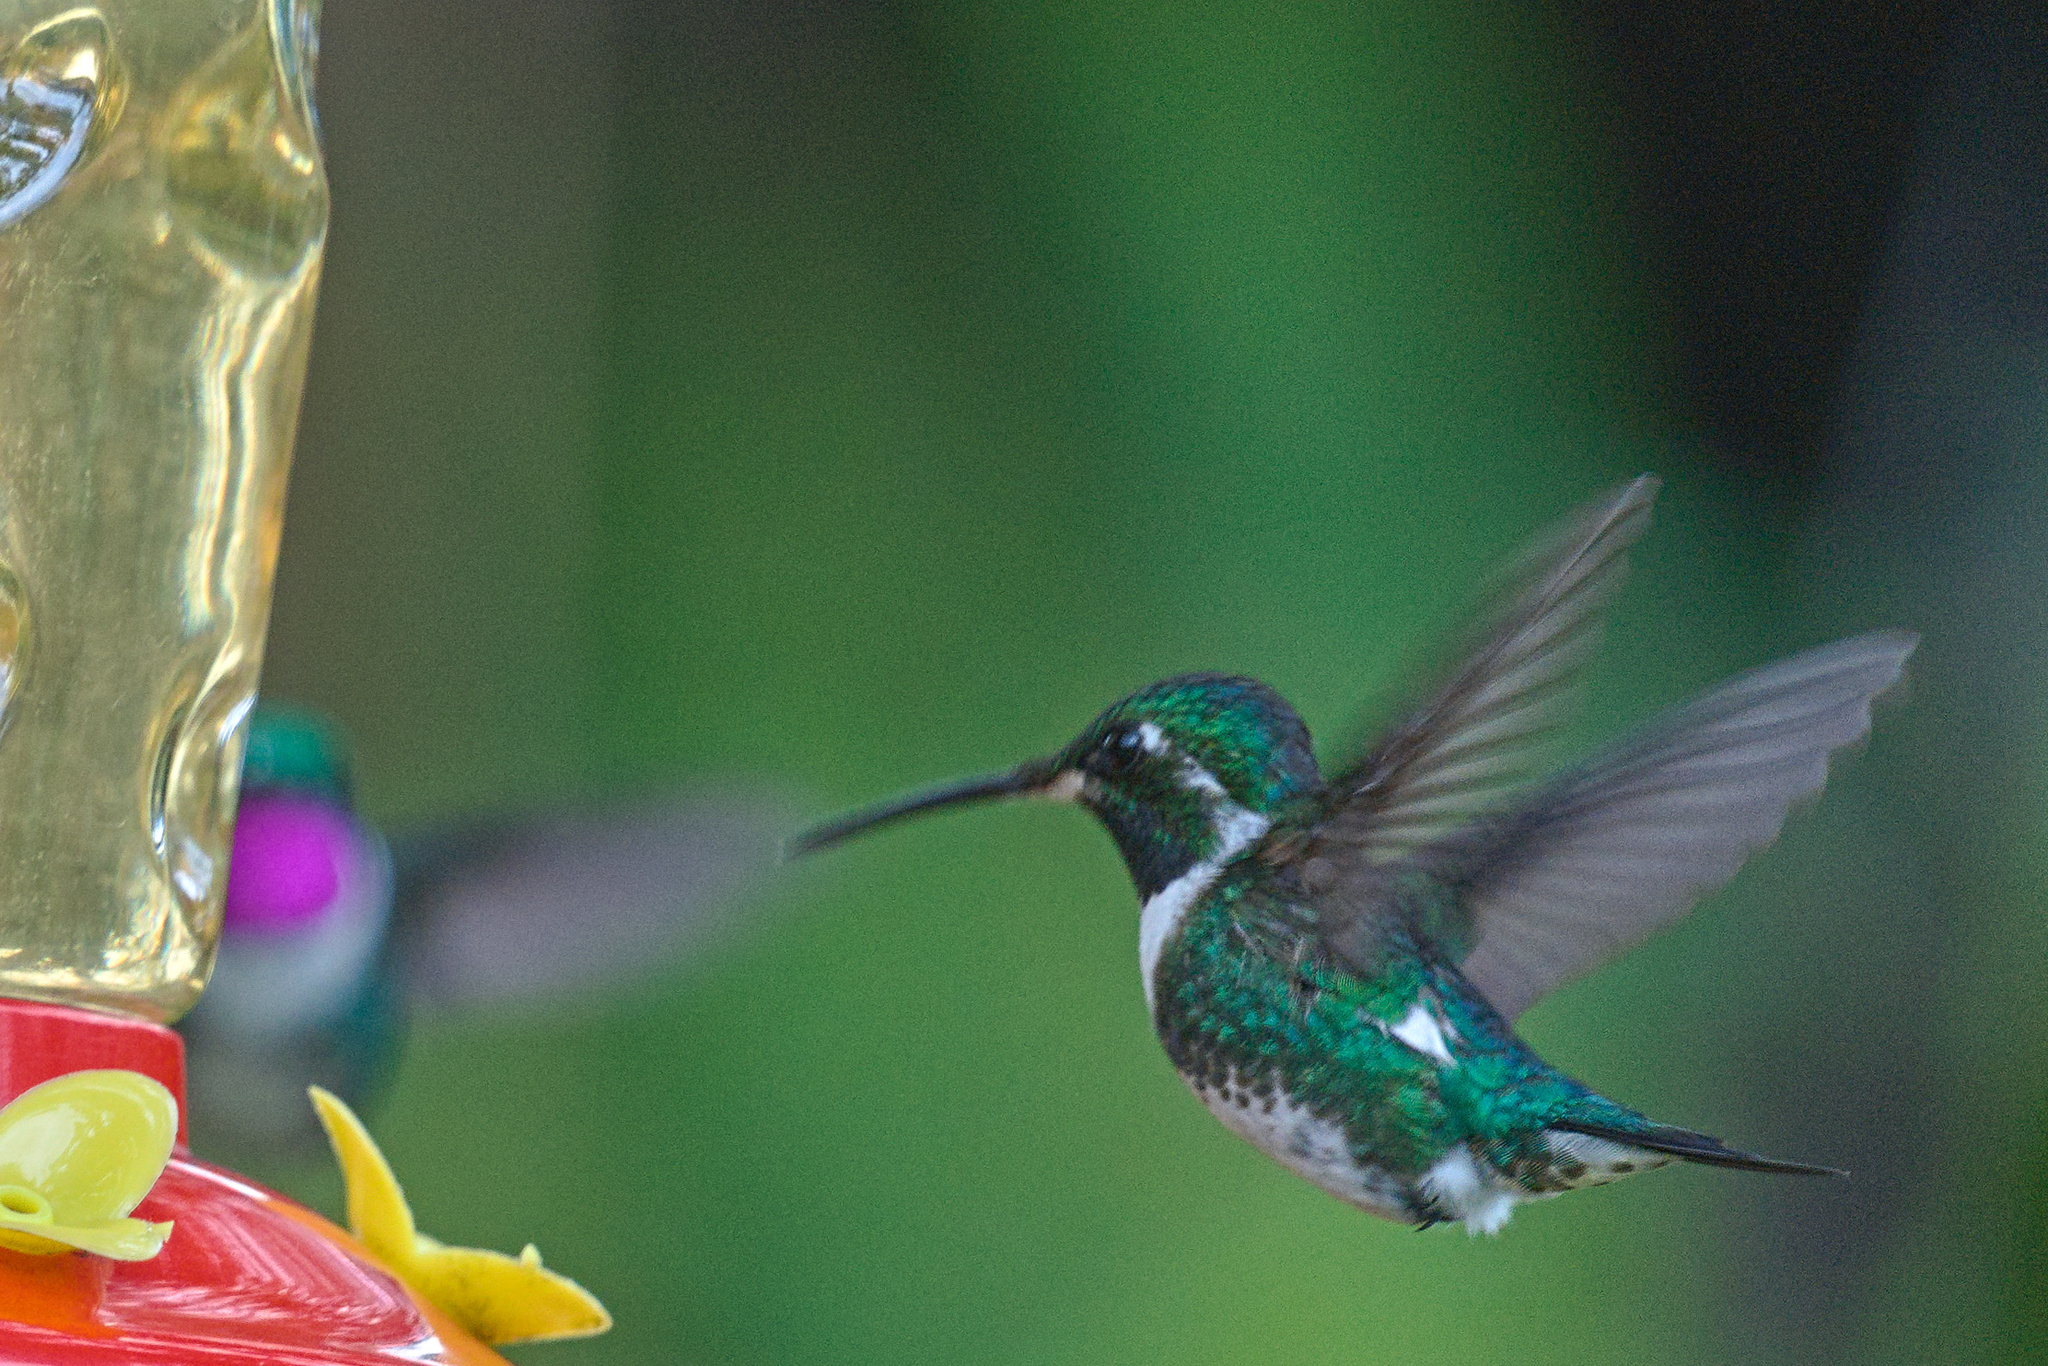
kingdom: Animalia
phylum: Chordata
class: Aves
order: Apodiformes
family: Trochilidae
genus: Chaetocercus
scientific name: Chaetocercus mulsant
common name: White-bellied woodstar
